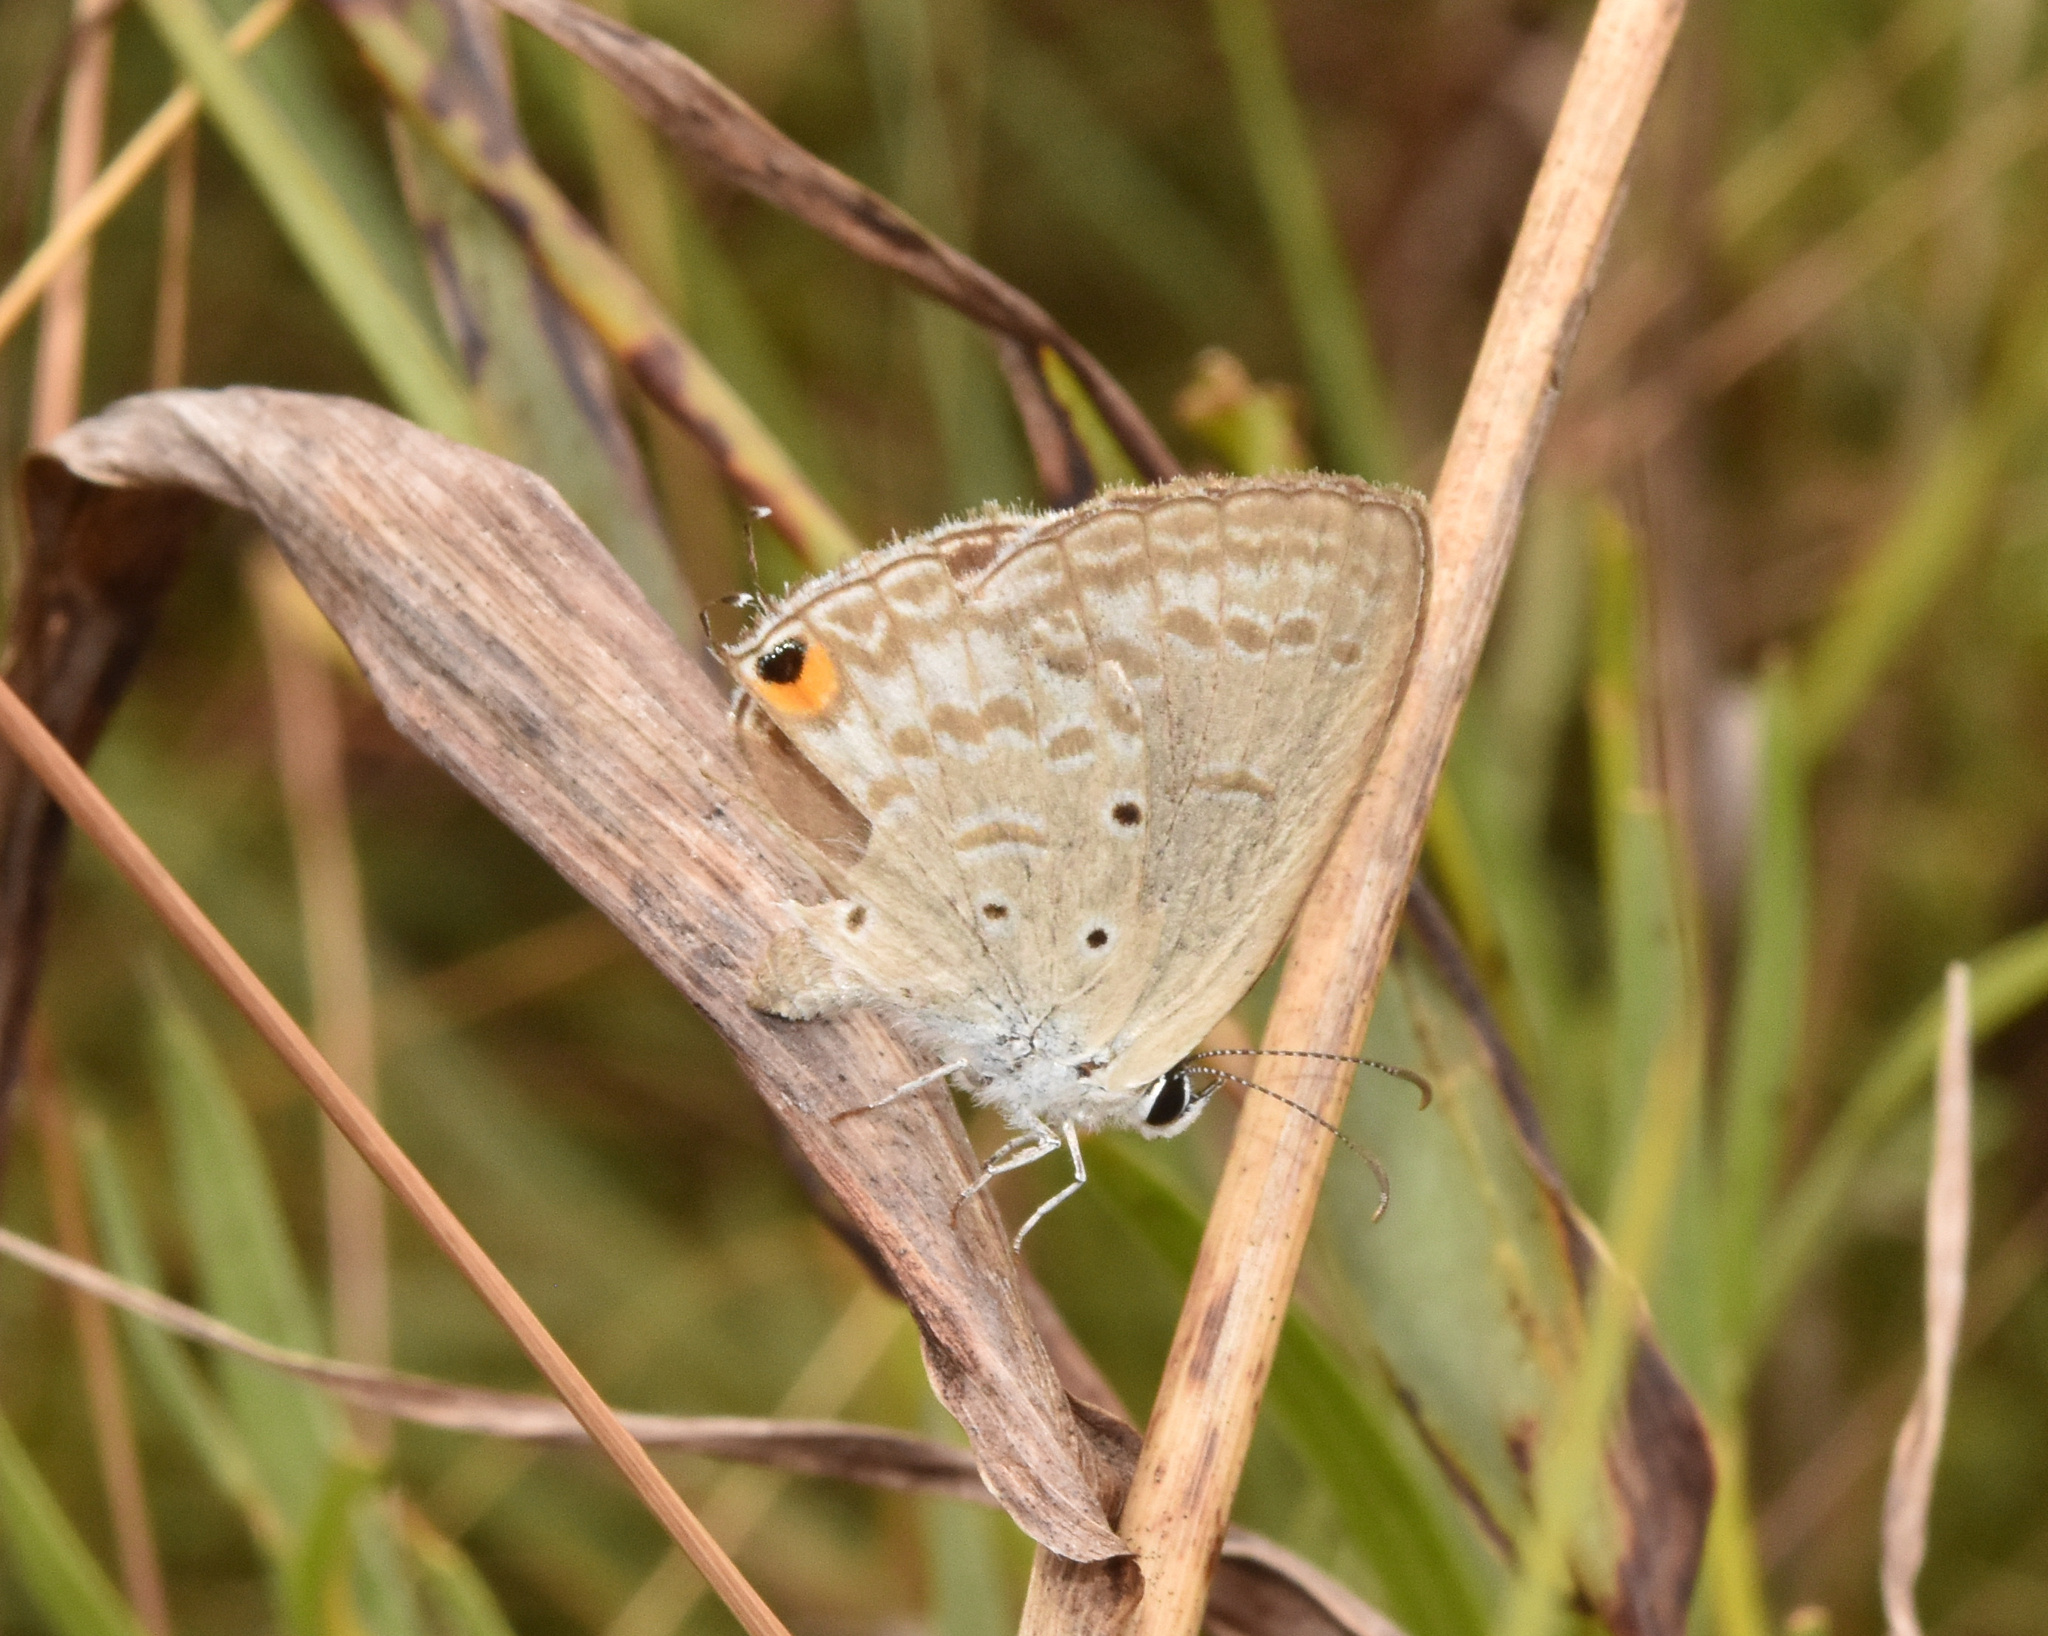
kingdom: Animalia
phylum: Arthropoda
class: Insecta
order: Lepidoptera
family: Lycaenidae
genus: Euchrysops
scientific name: Euchrysops barkeri
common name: Barker's smoky blue
